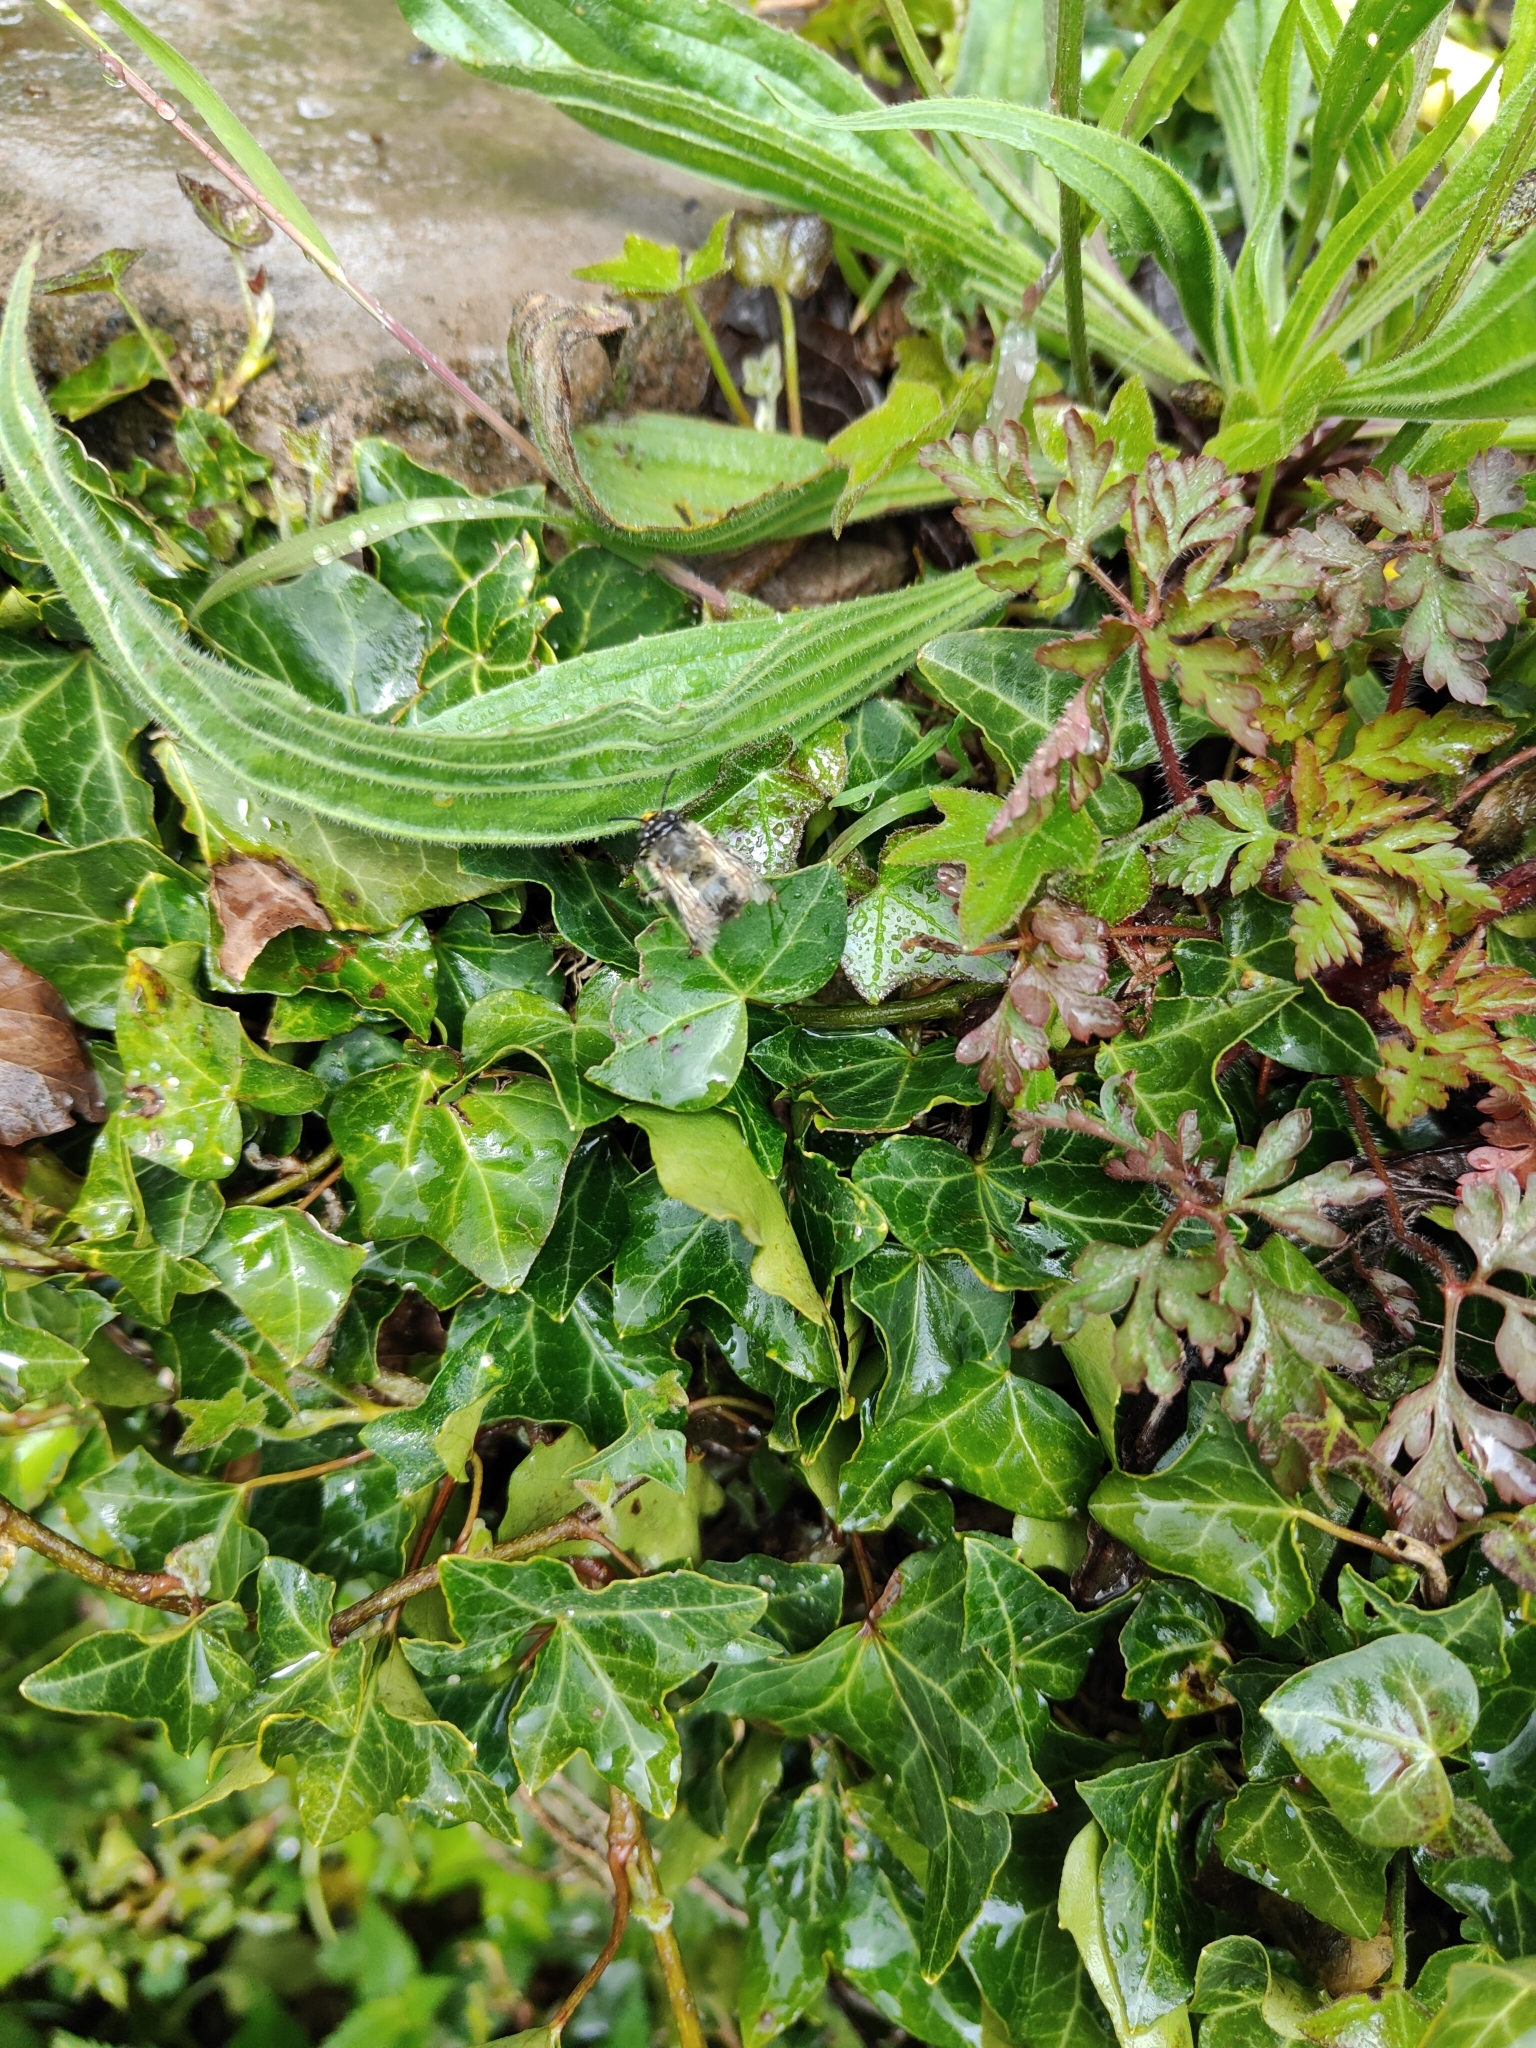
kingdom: Animalia
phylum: Arthropoda
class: Insecta
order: Hymenoptera
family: Apidae
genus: Anthophora
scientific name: Anthophora plumipes
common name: Hairy-footed flower bee
